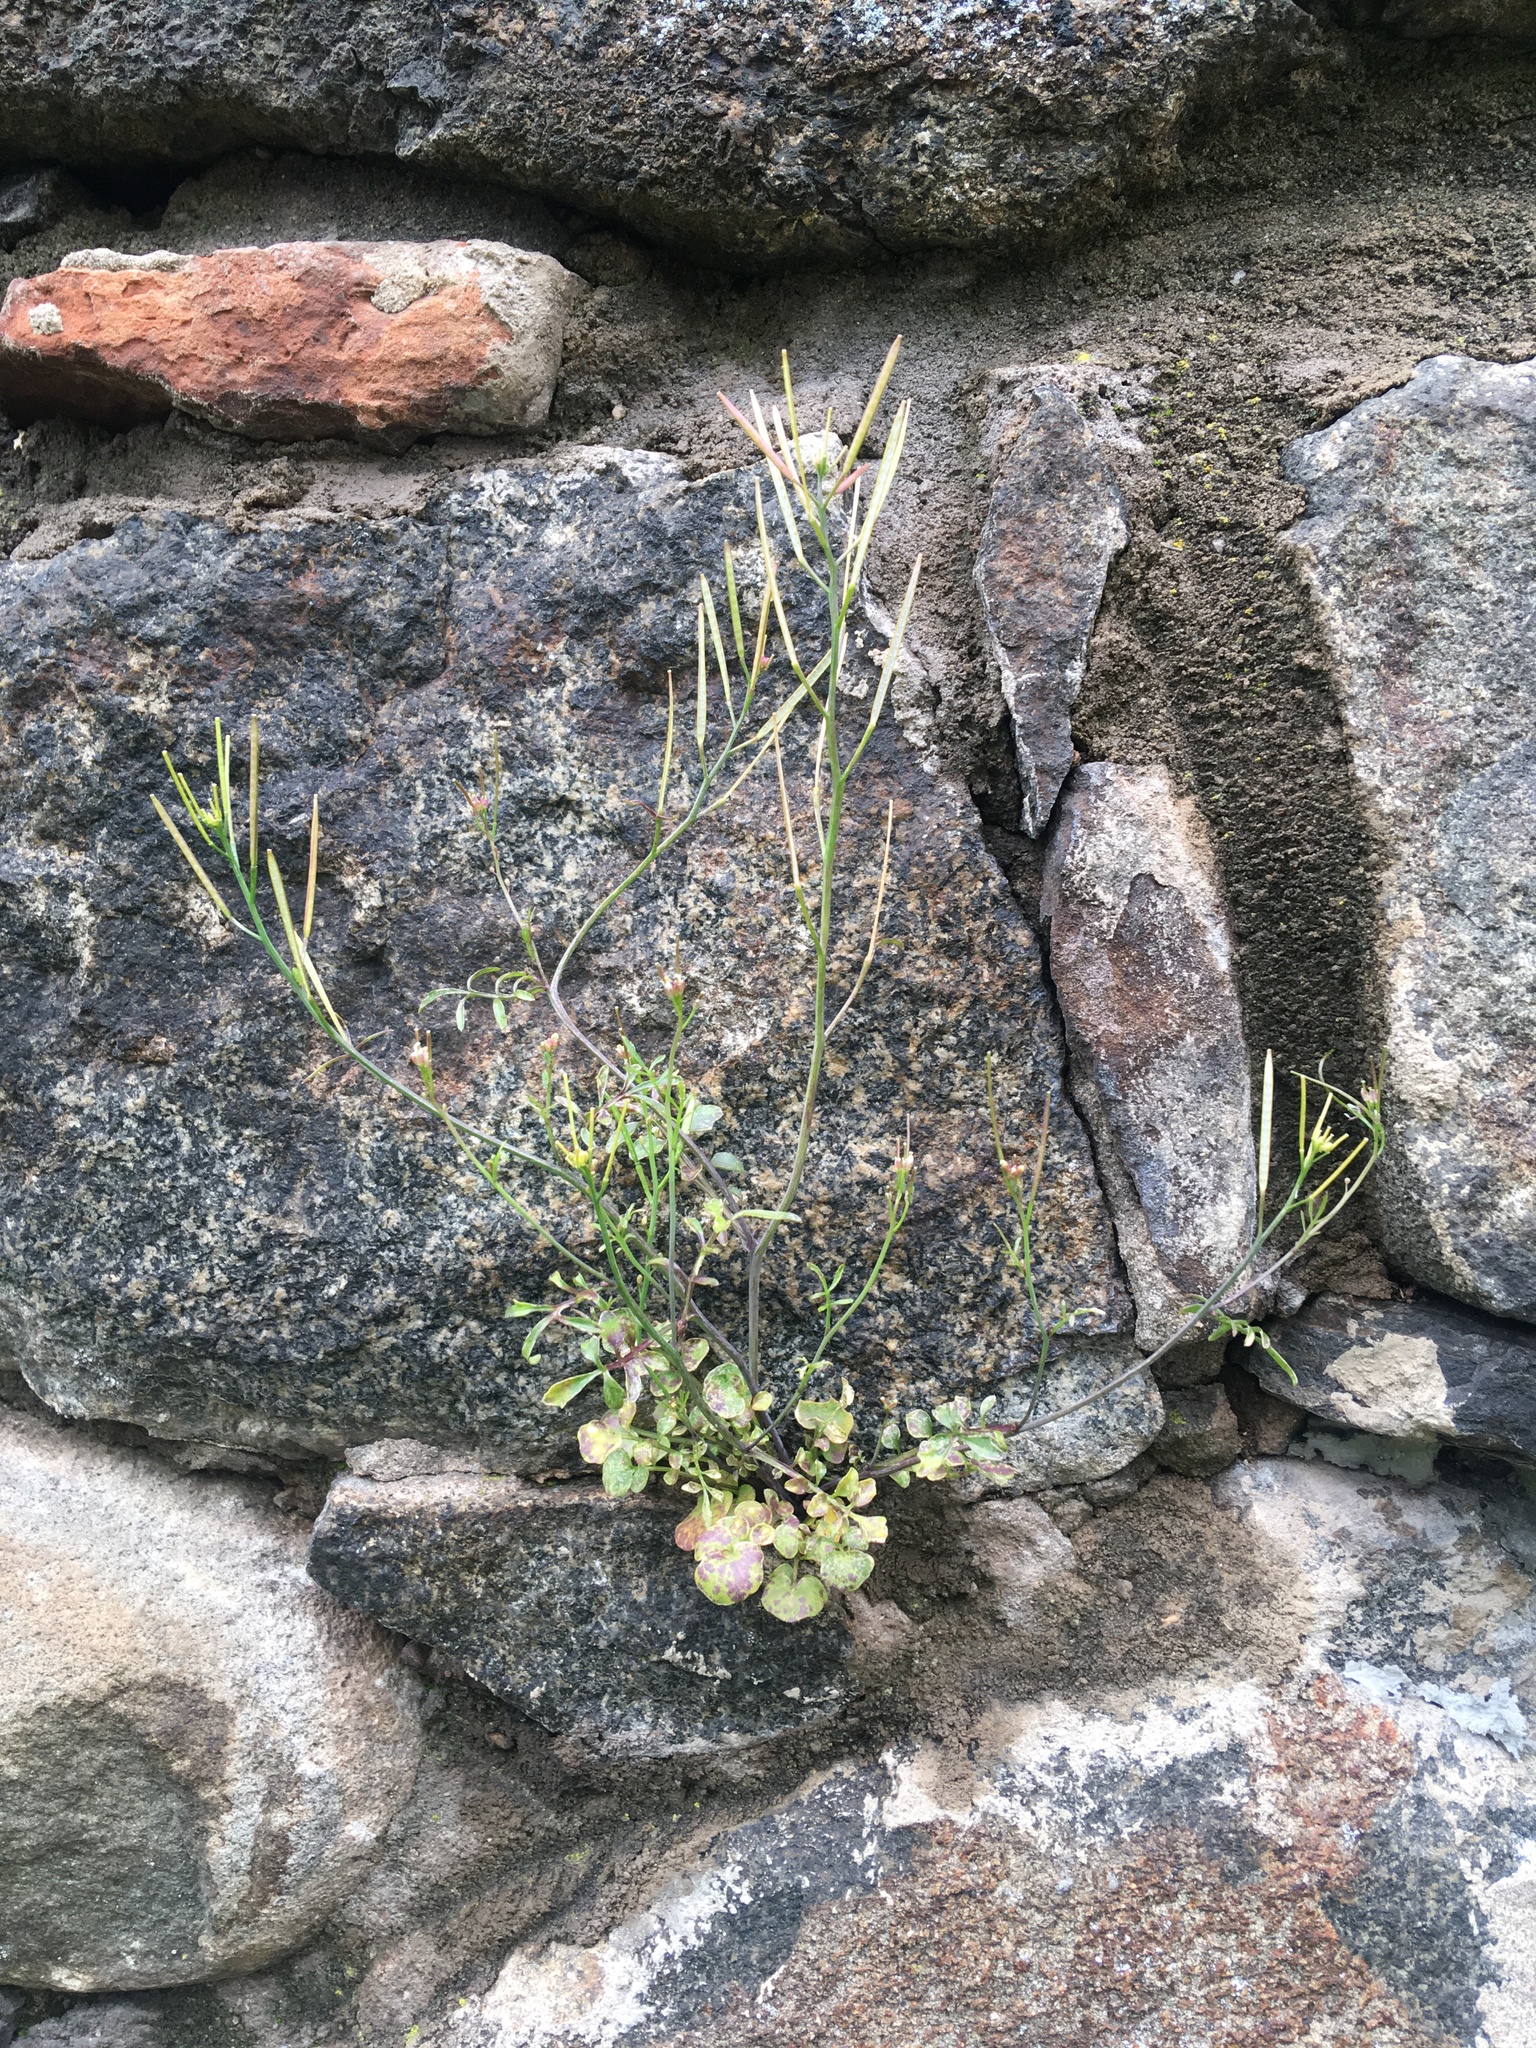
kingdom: Plantae
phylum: Tracheophyta
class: Magnoliopsida
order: Brassicales
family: Brassicaceae
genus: Cardamine
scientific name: Cardamine hirsuta
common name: Hairy bittercress
